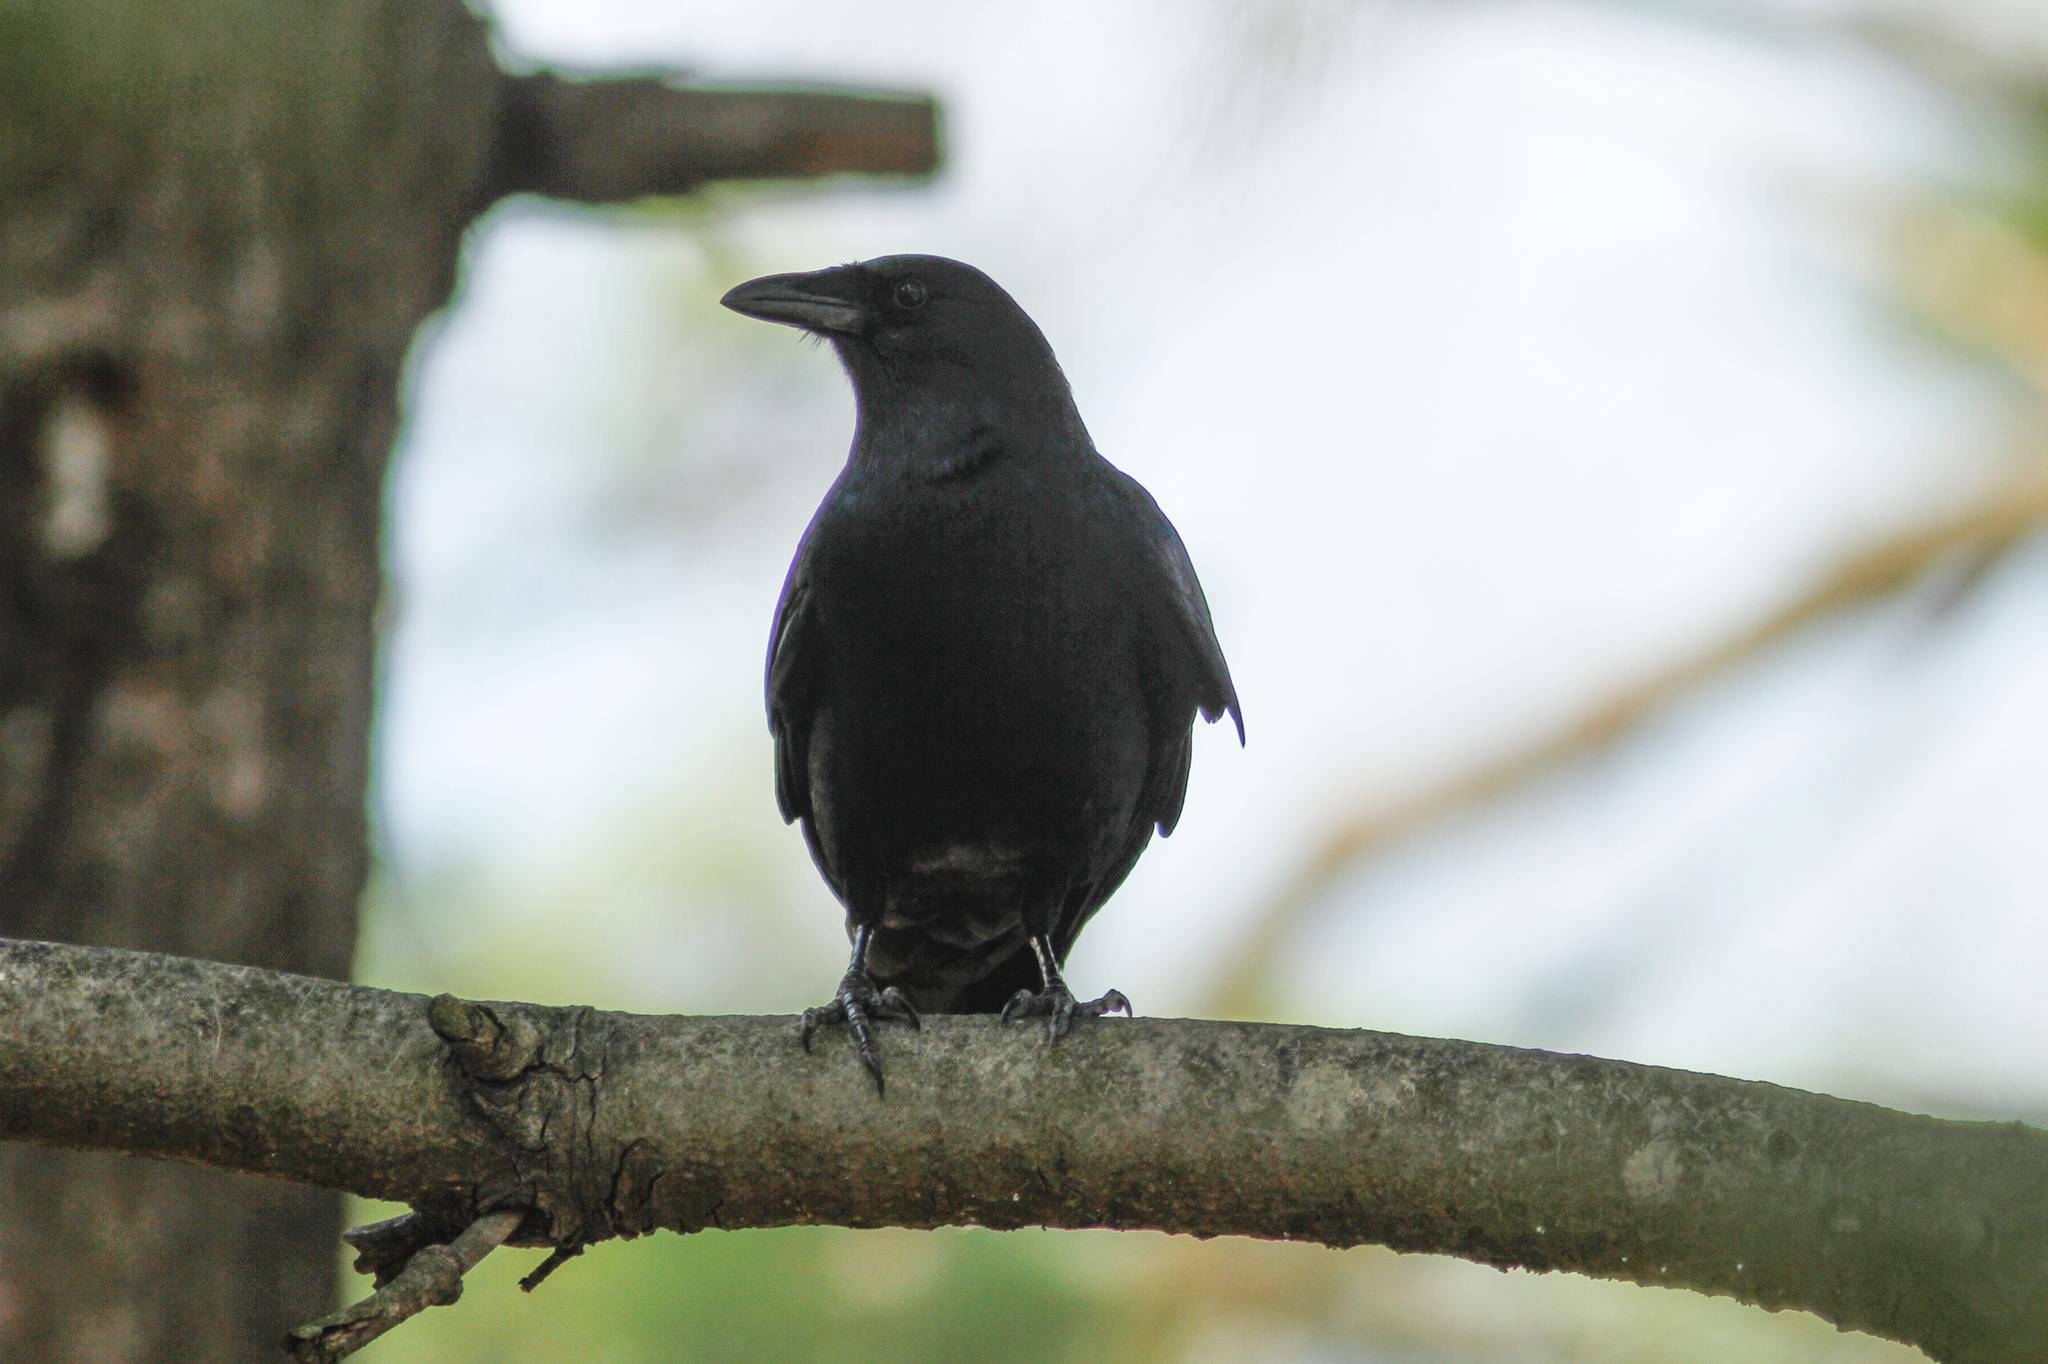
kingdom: Animalia
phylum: Chordata
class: Aves
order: Passeriformes
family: Corvidae
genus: Corvus
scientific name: Corvus brachyrhynchos
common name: American crow
